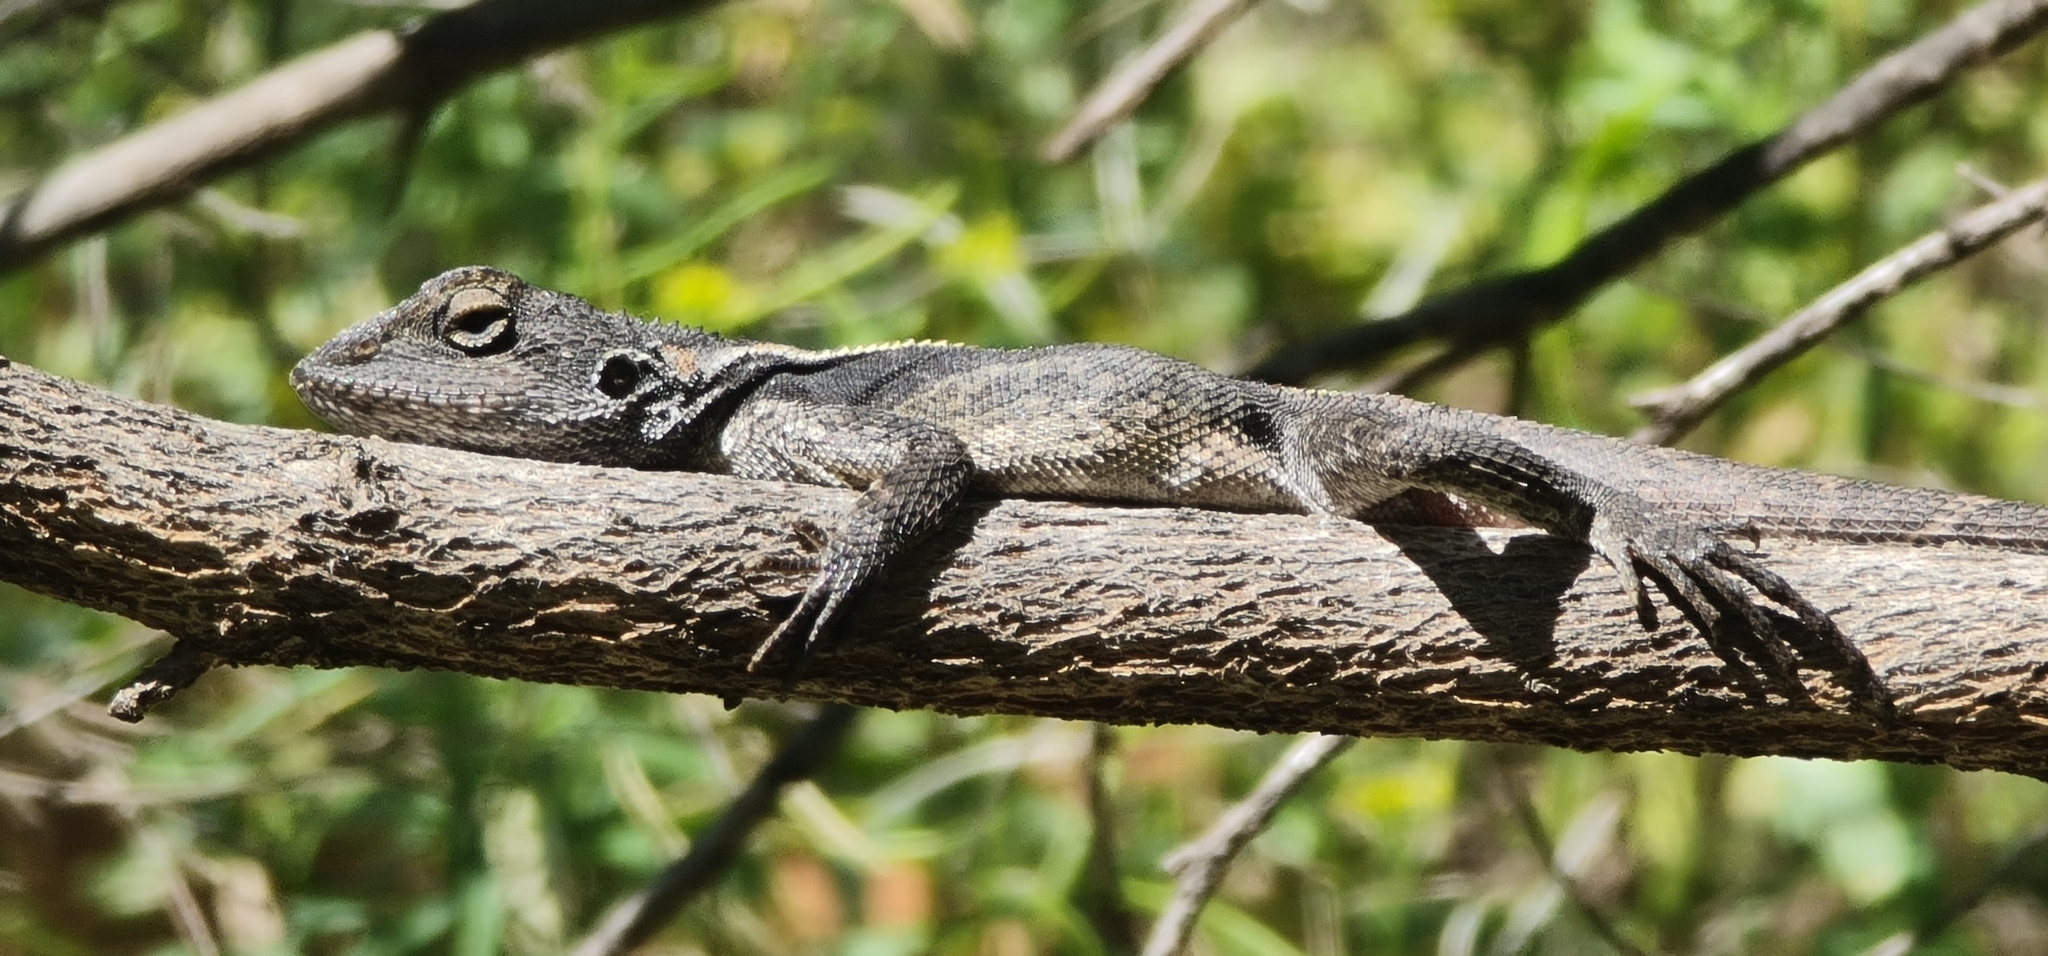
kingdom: Animalia
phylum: Chordata
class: Squamata
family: Agamidae
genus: Diporiphora
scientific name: Diporiphora nobbi
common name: Nobbi
